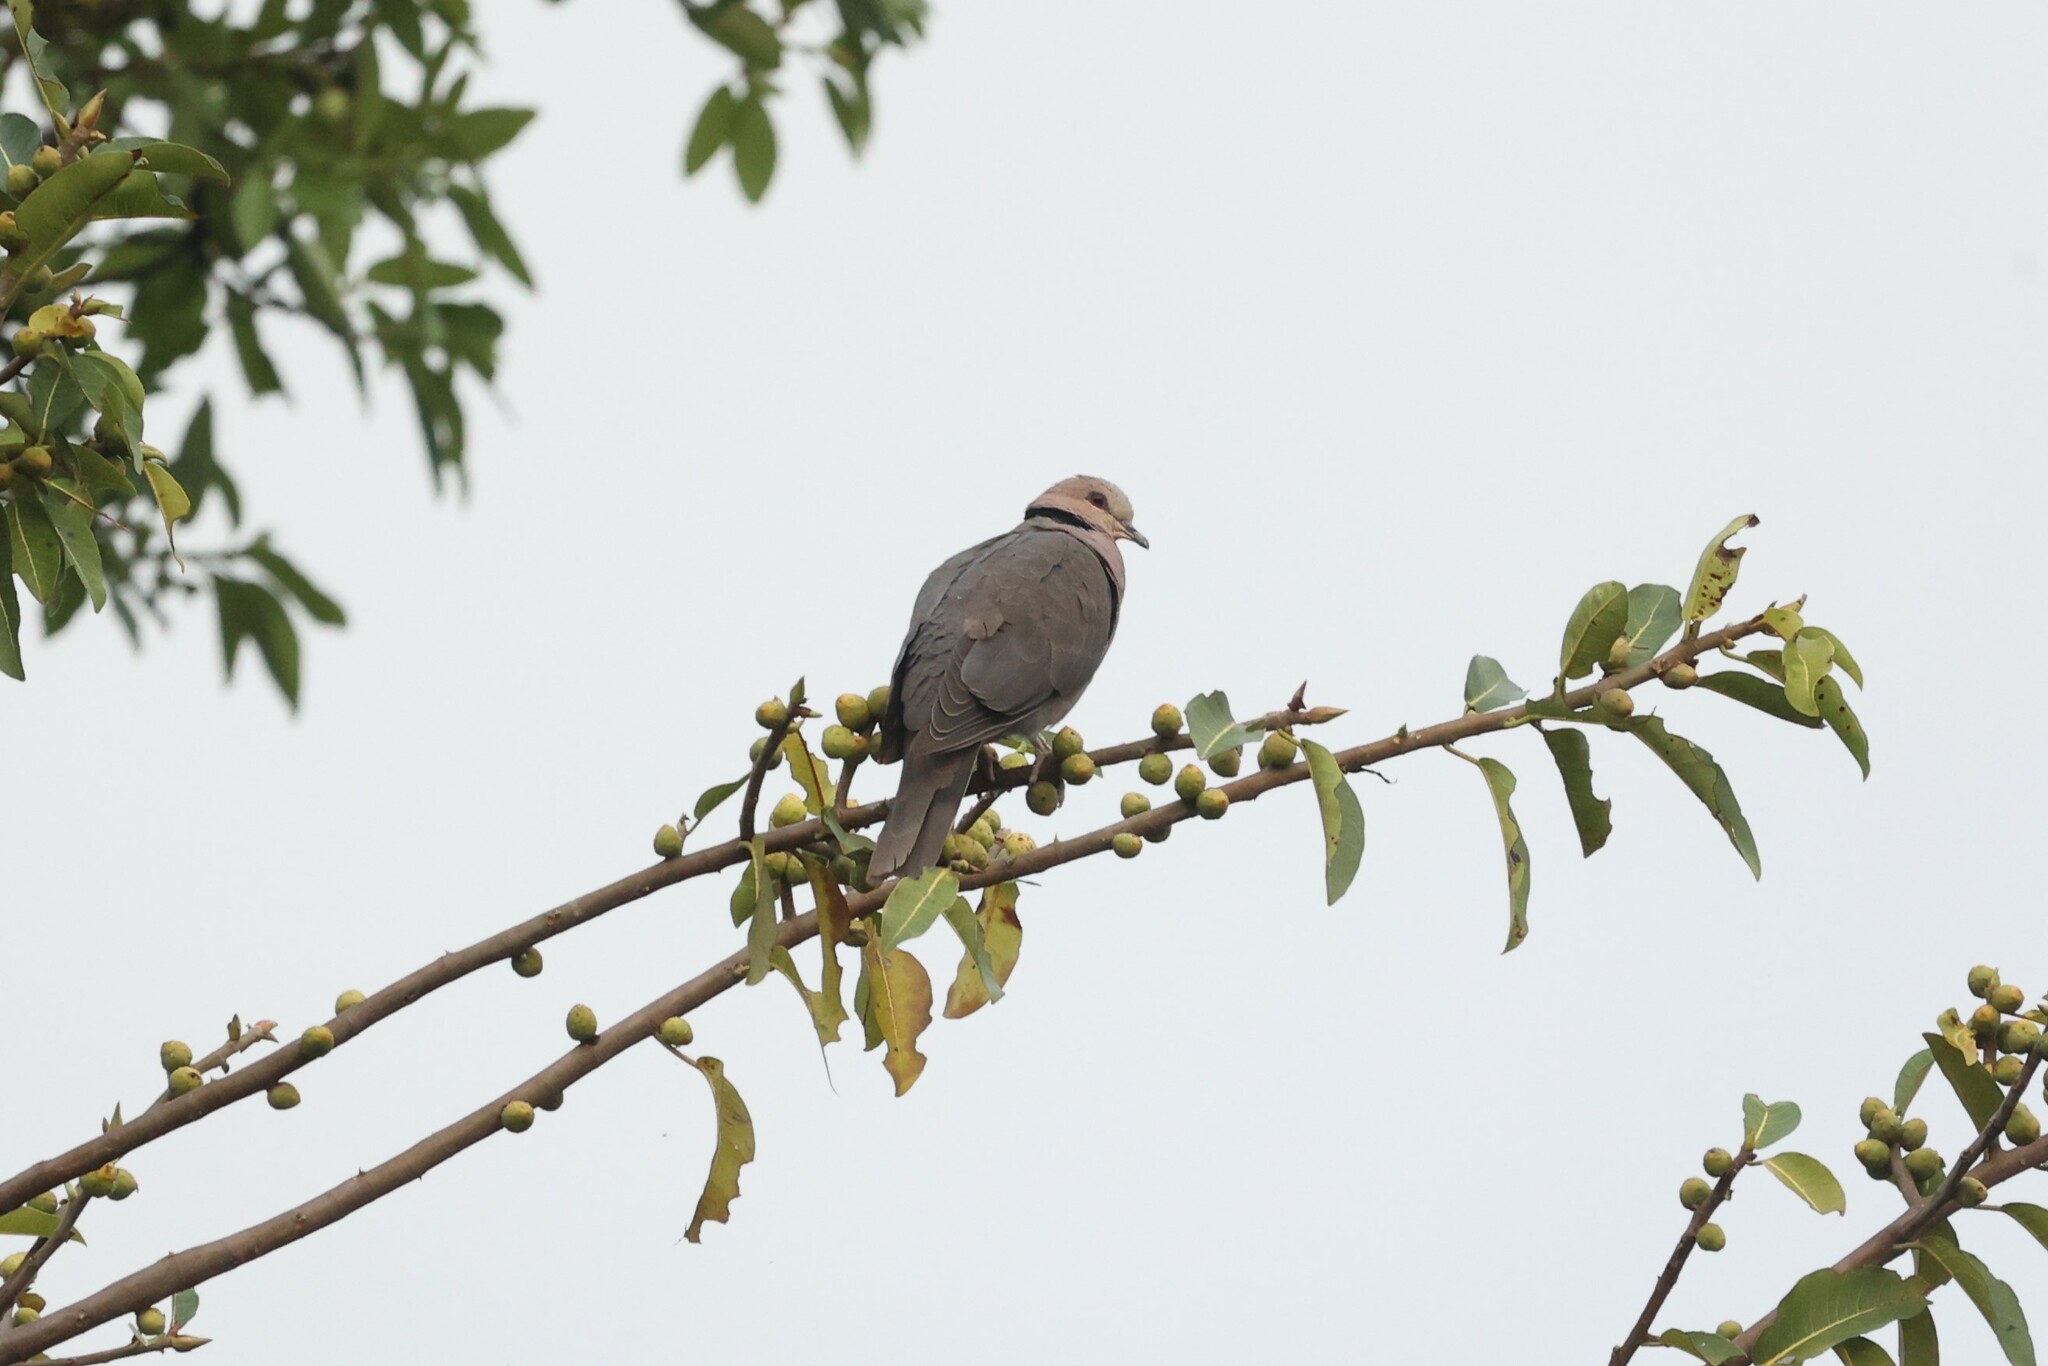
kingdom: Animalia
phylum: Chordata
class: Aves
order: Columbiformes
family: Columbidae
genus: Streptopelia
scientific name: Streptopelia semitorquata
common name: Red-eyed dove
